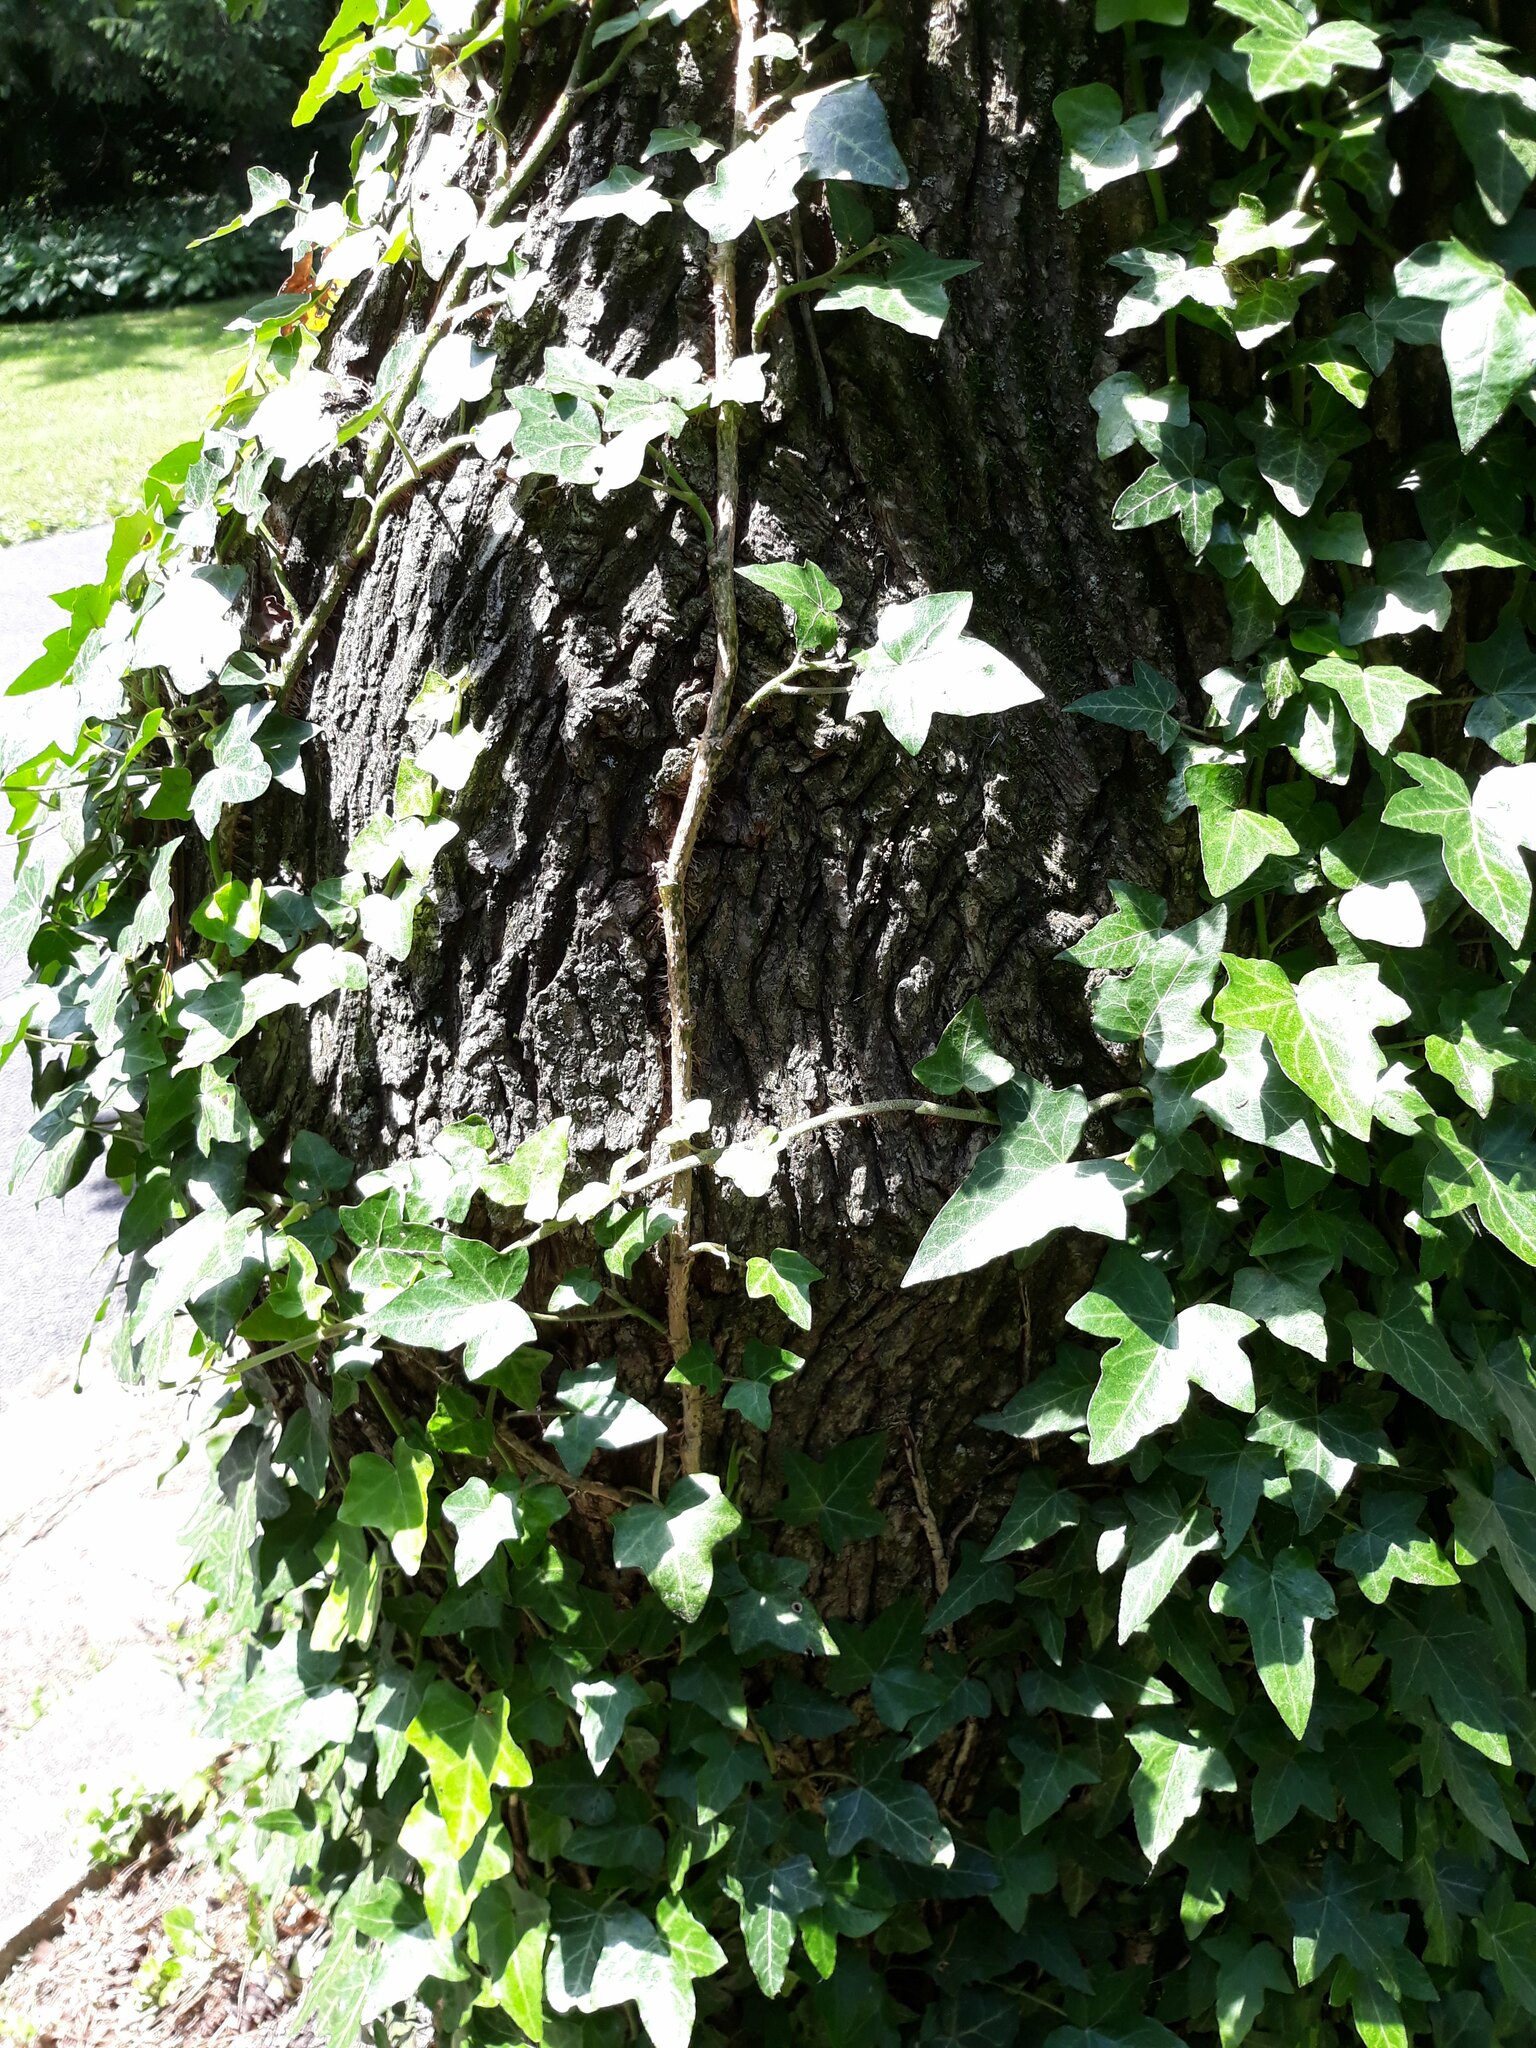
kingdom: Plantae
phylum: Tracheophyta
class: Magnoliopsida
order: Sapindales
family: Sapindaceae
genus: Acer
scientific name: Acer platanoides
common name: Norway maple
